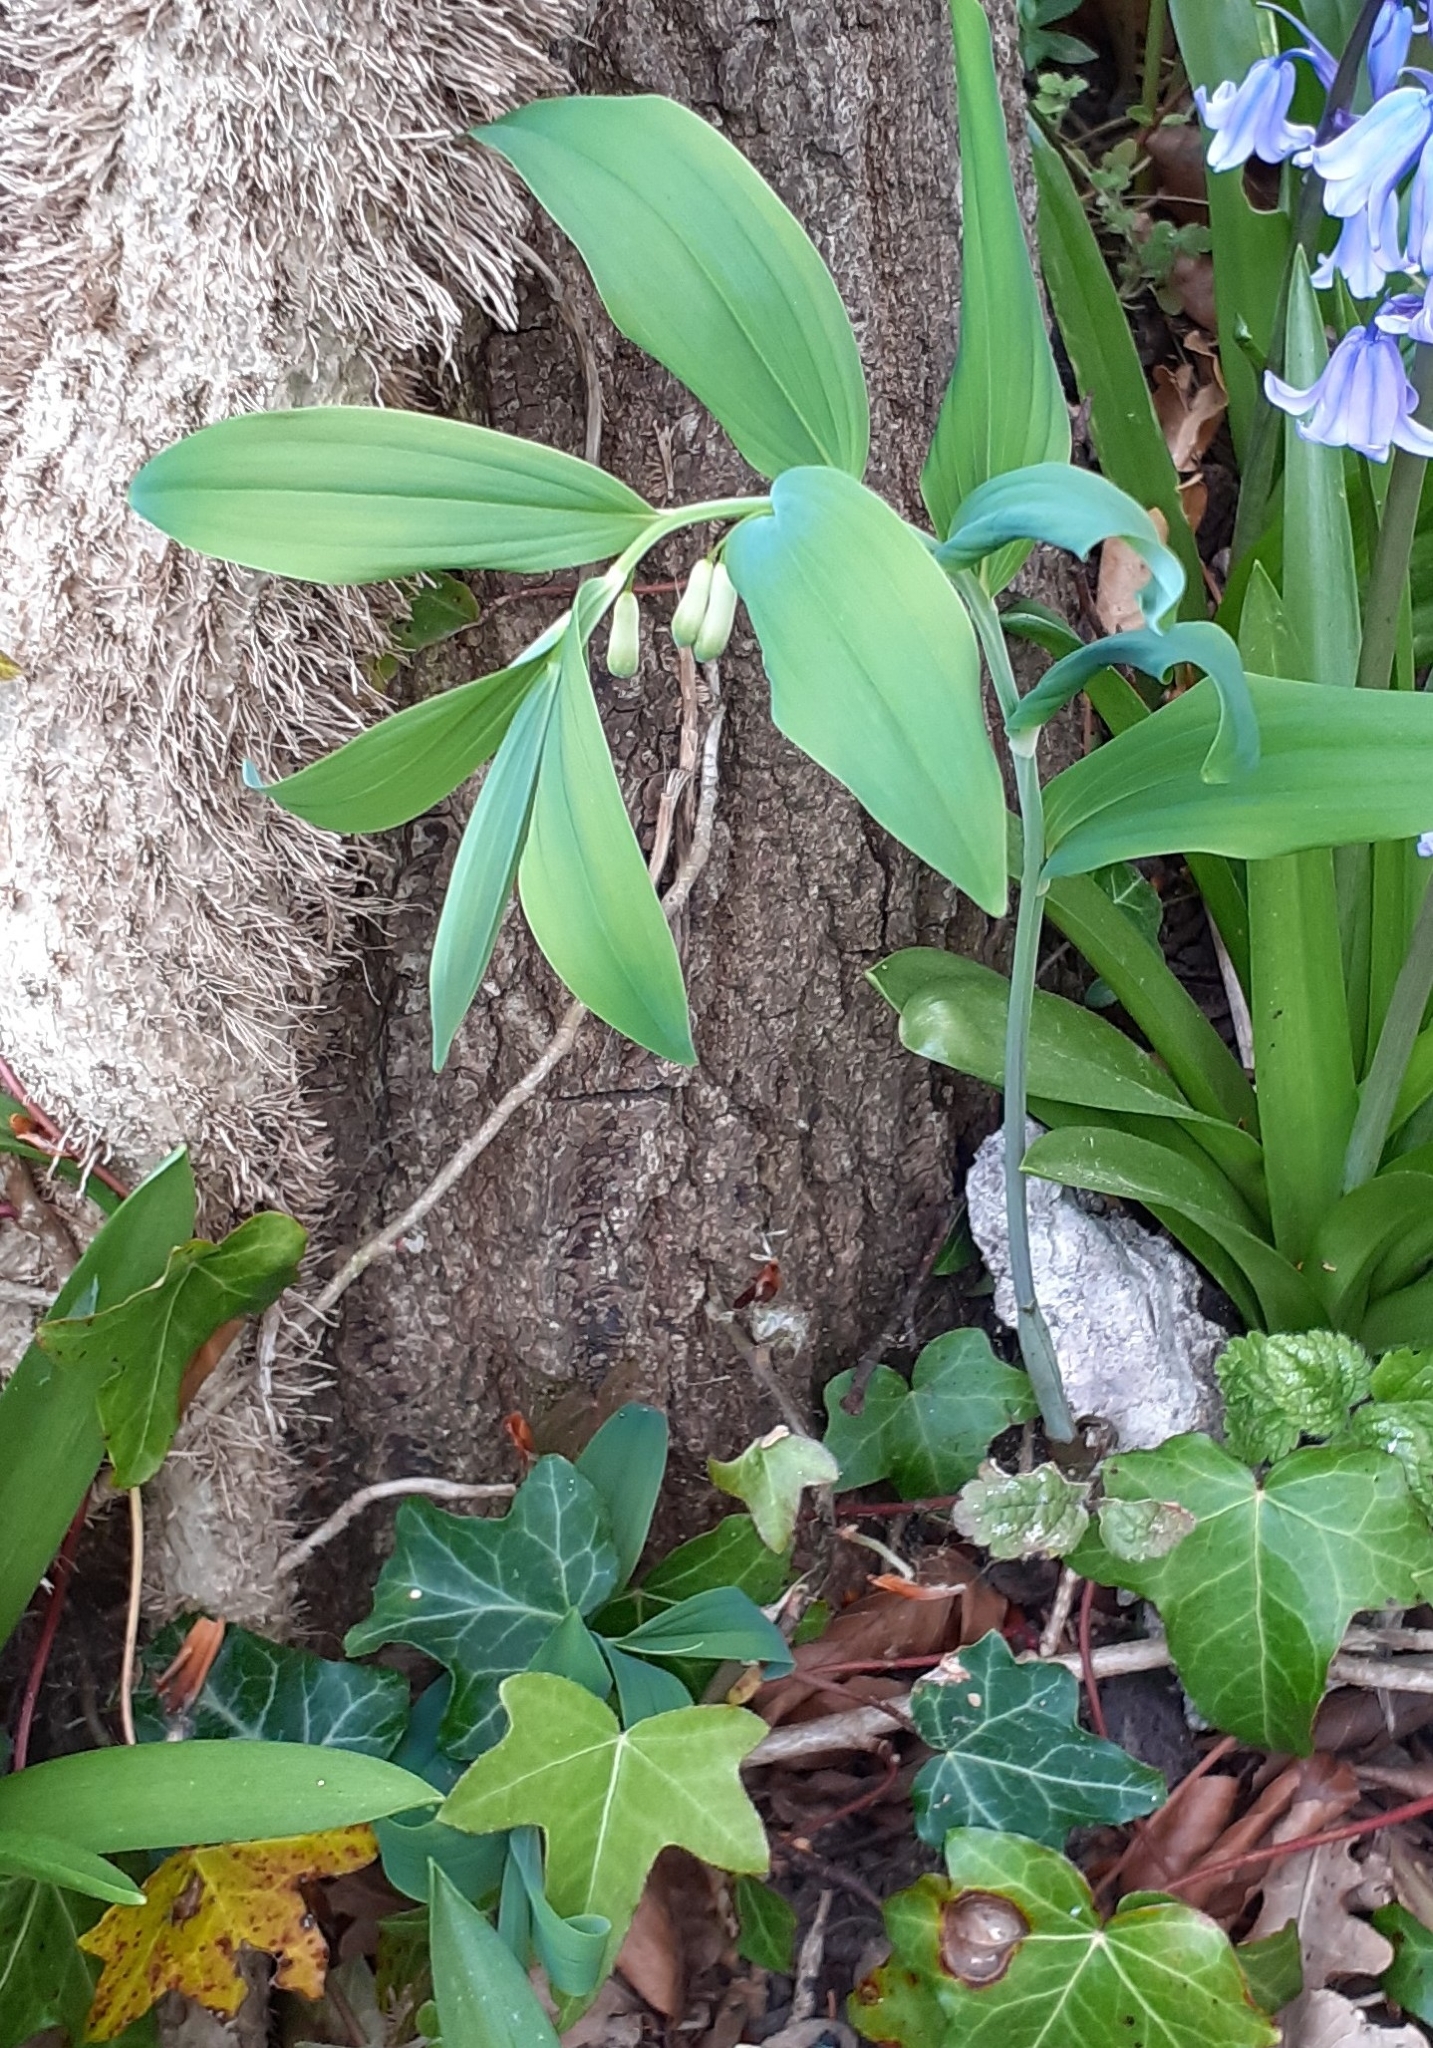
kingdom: Plantae
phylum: Tracheophyta
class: Liliopsida
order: Asparagales
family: Asparagaceae
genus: Polygonatum
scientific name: Polygonatum hybridum
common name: Garden solomon's-seal
